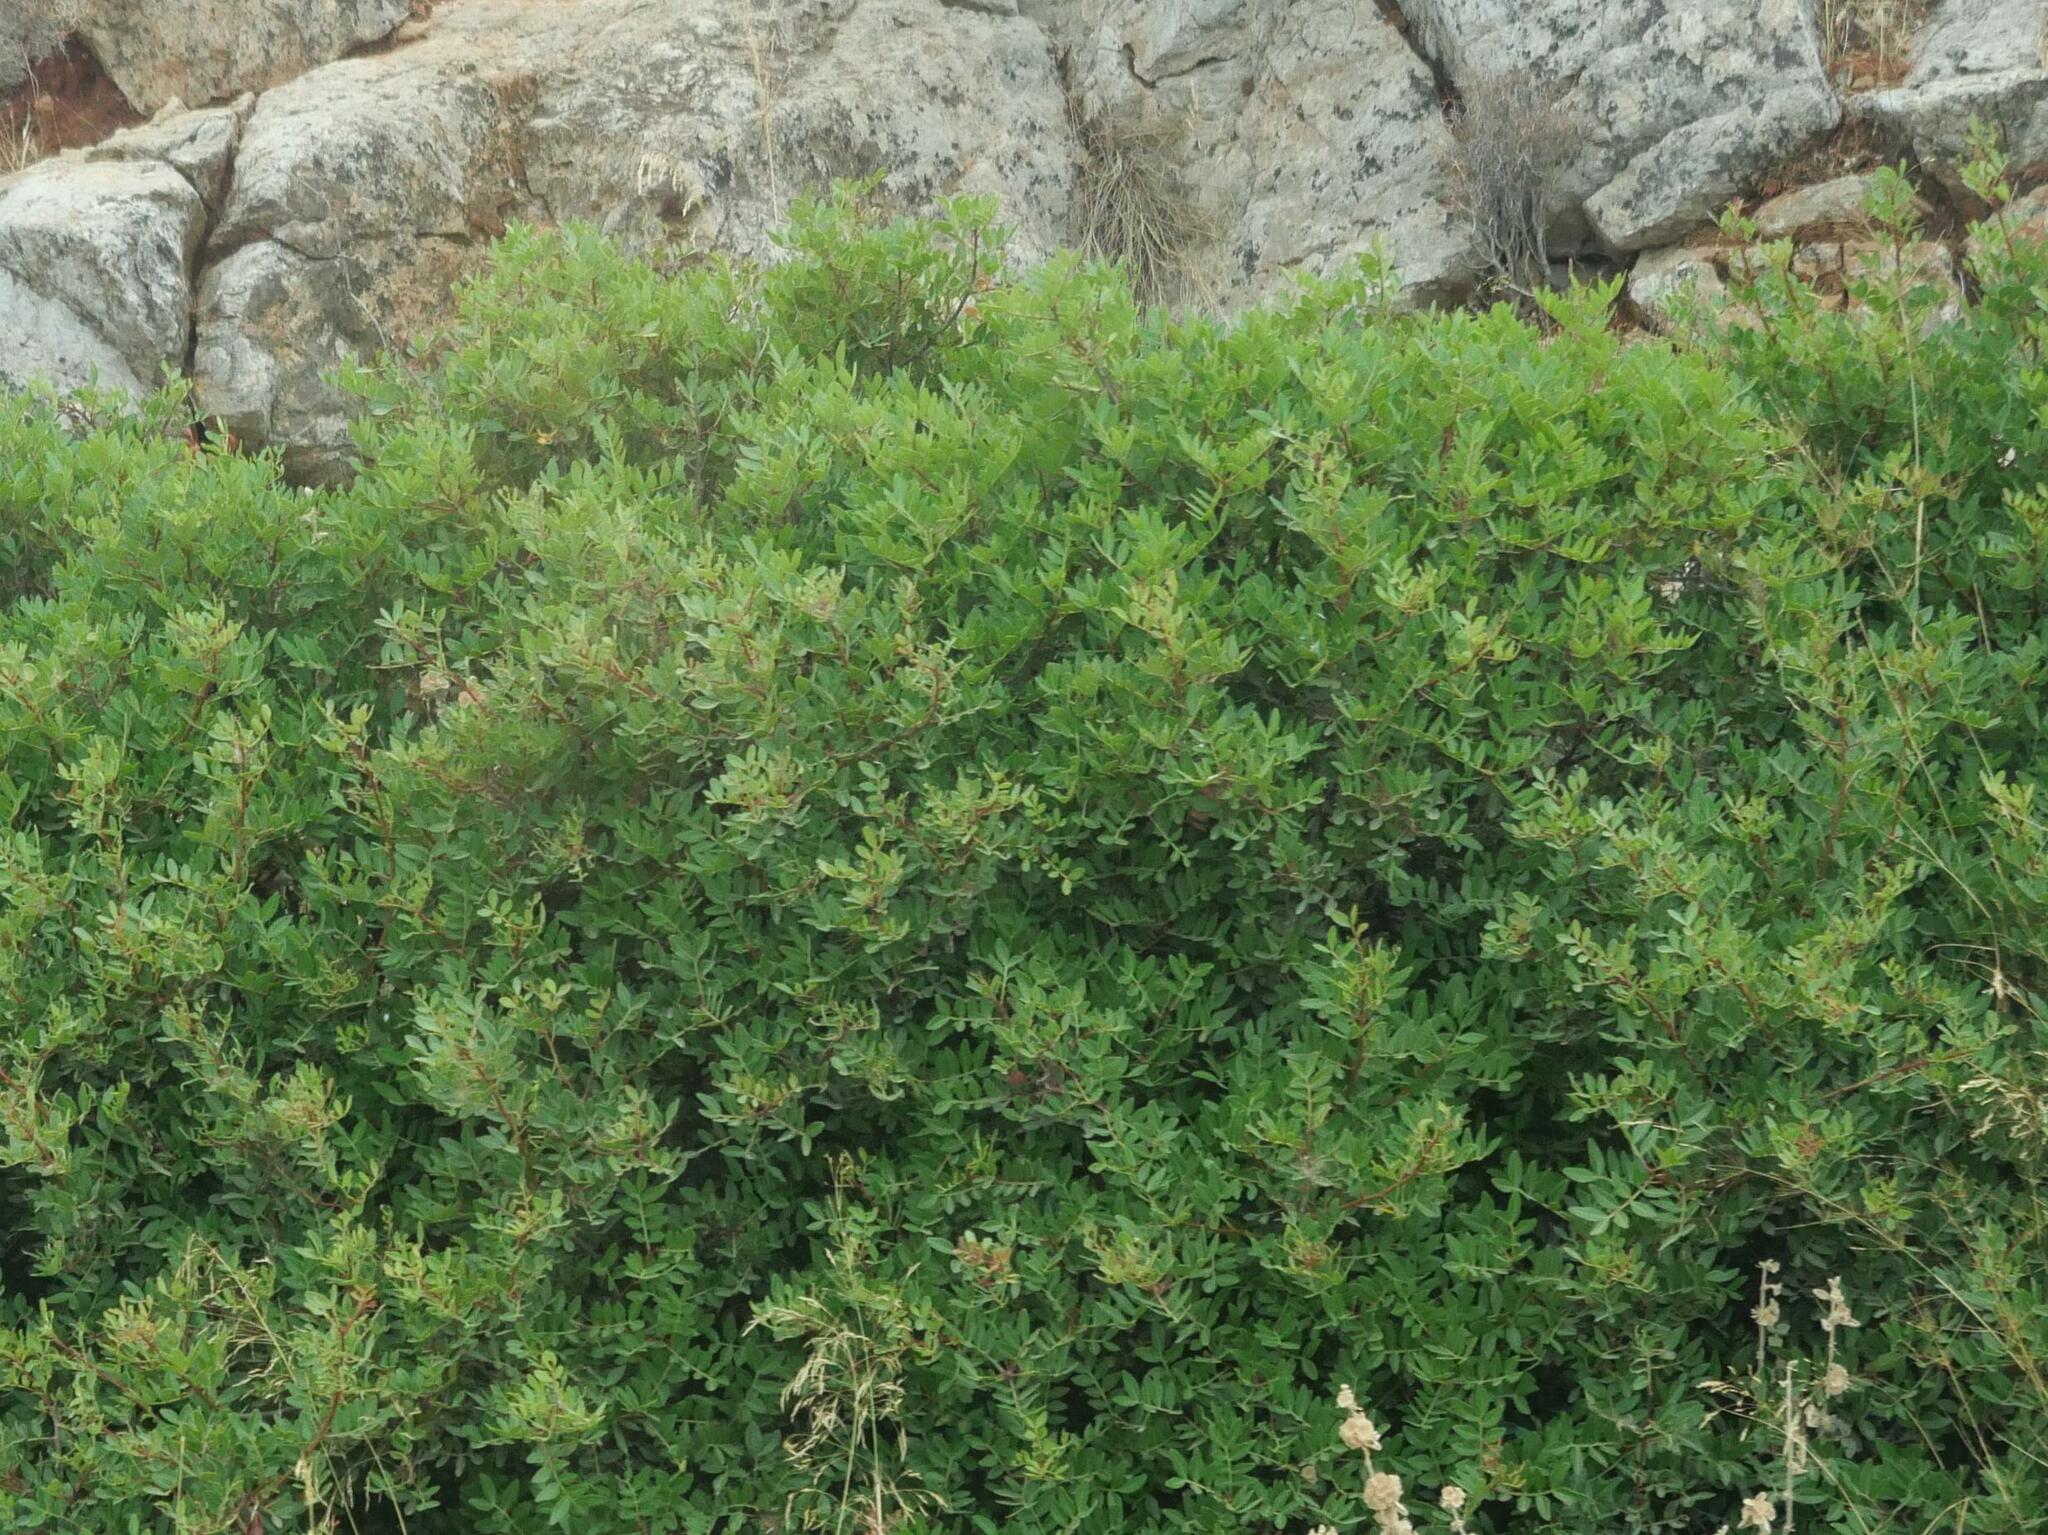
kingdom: Plantae
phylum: Tracheophyta
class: Magnoliopsida
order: Sapindales
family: Anacardiaceae
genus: Pistacia
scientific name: Pistacia lentiscus
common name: Lentisk
